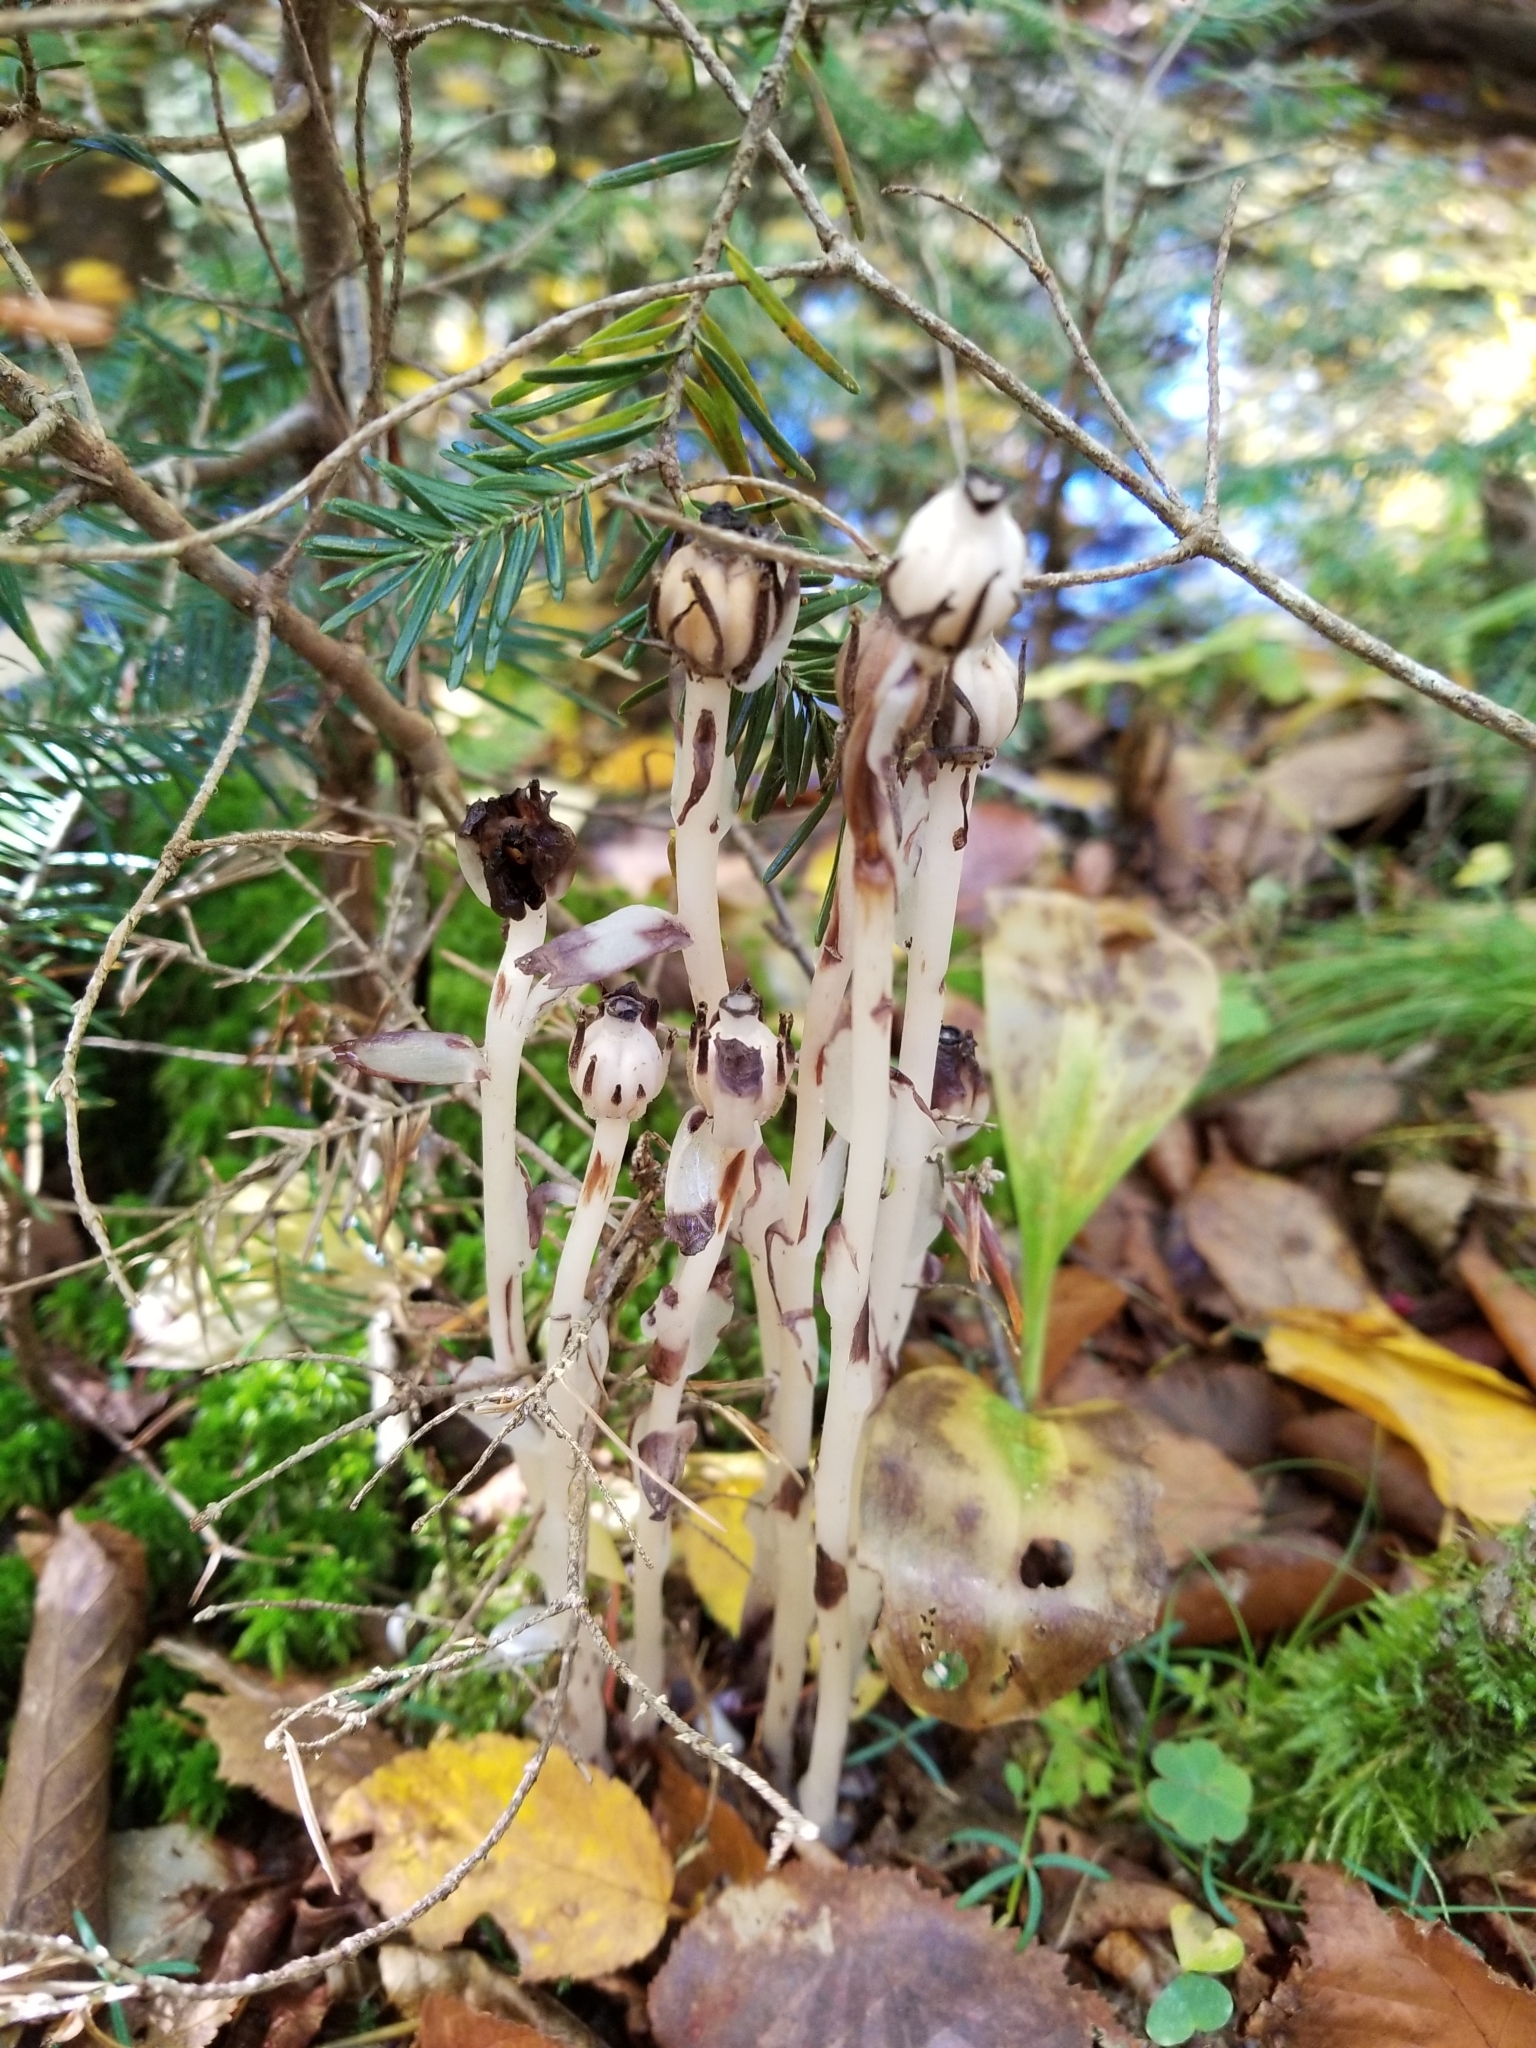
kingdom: Plantae
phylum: Tracheophyta
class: Magnoliopsida
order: Ericales
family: Ericaceae
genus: Monotropa
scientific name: Monotropa uniflora
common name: Convulsion root
